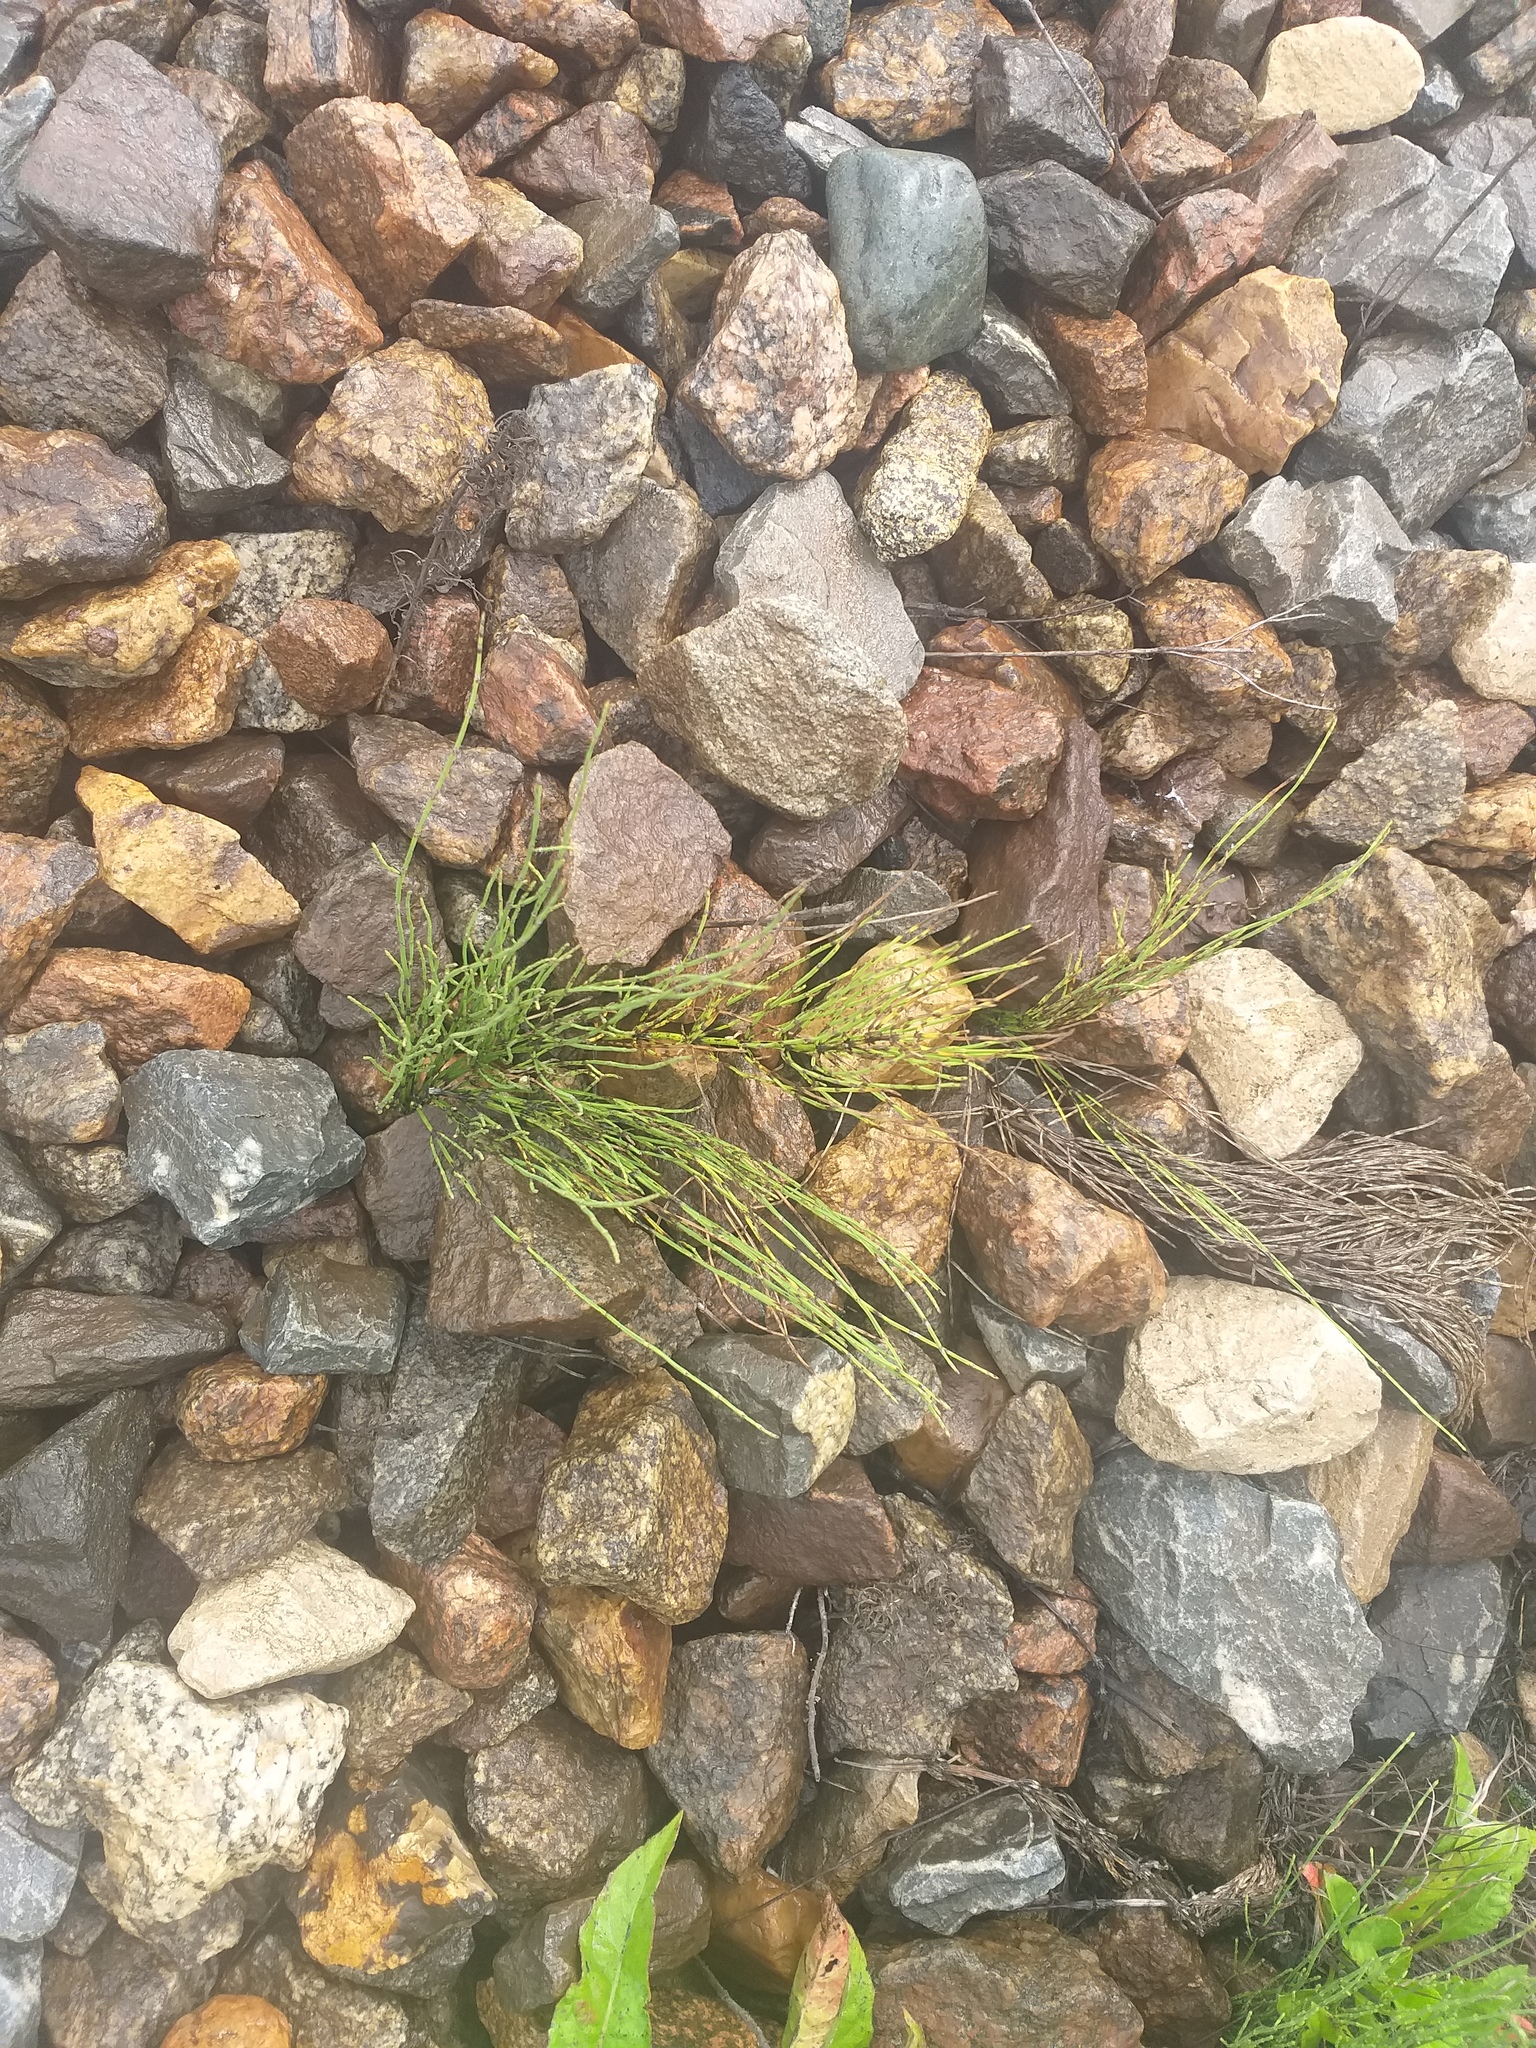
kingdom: Plantae
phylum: Tracheophyta
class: Polypodiopsida
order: Equisetales
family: Equisetaceae
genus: Equisetum
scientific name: Equisetum arvense
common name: Field horsetail
